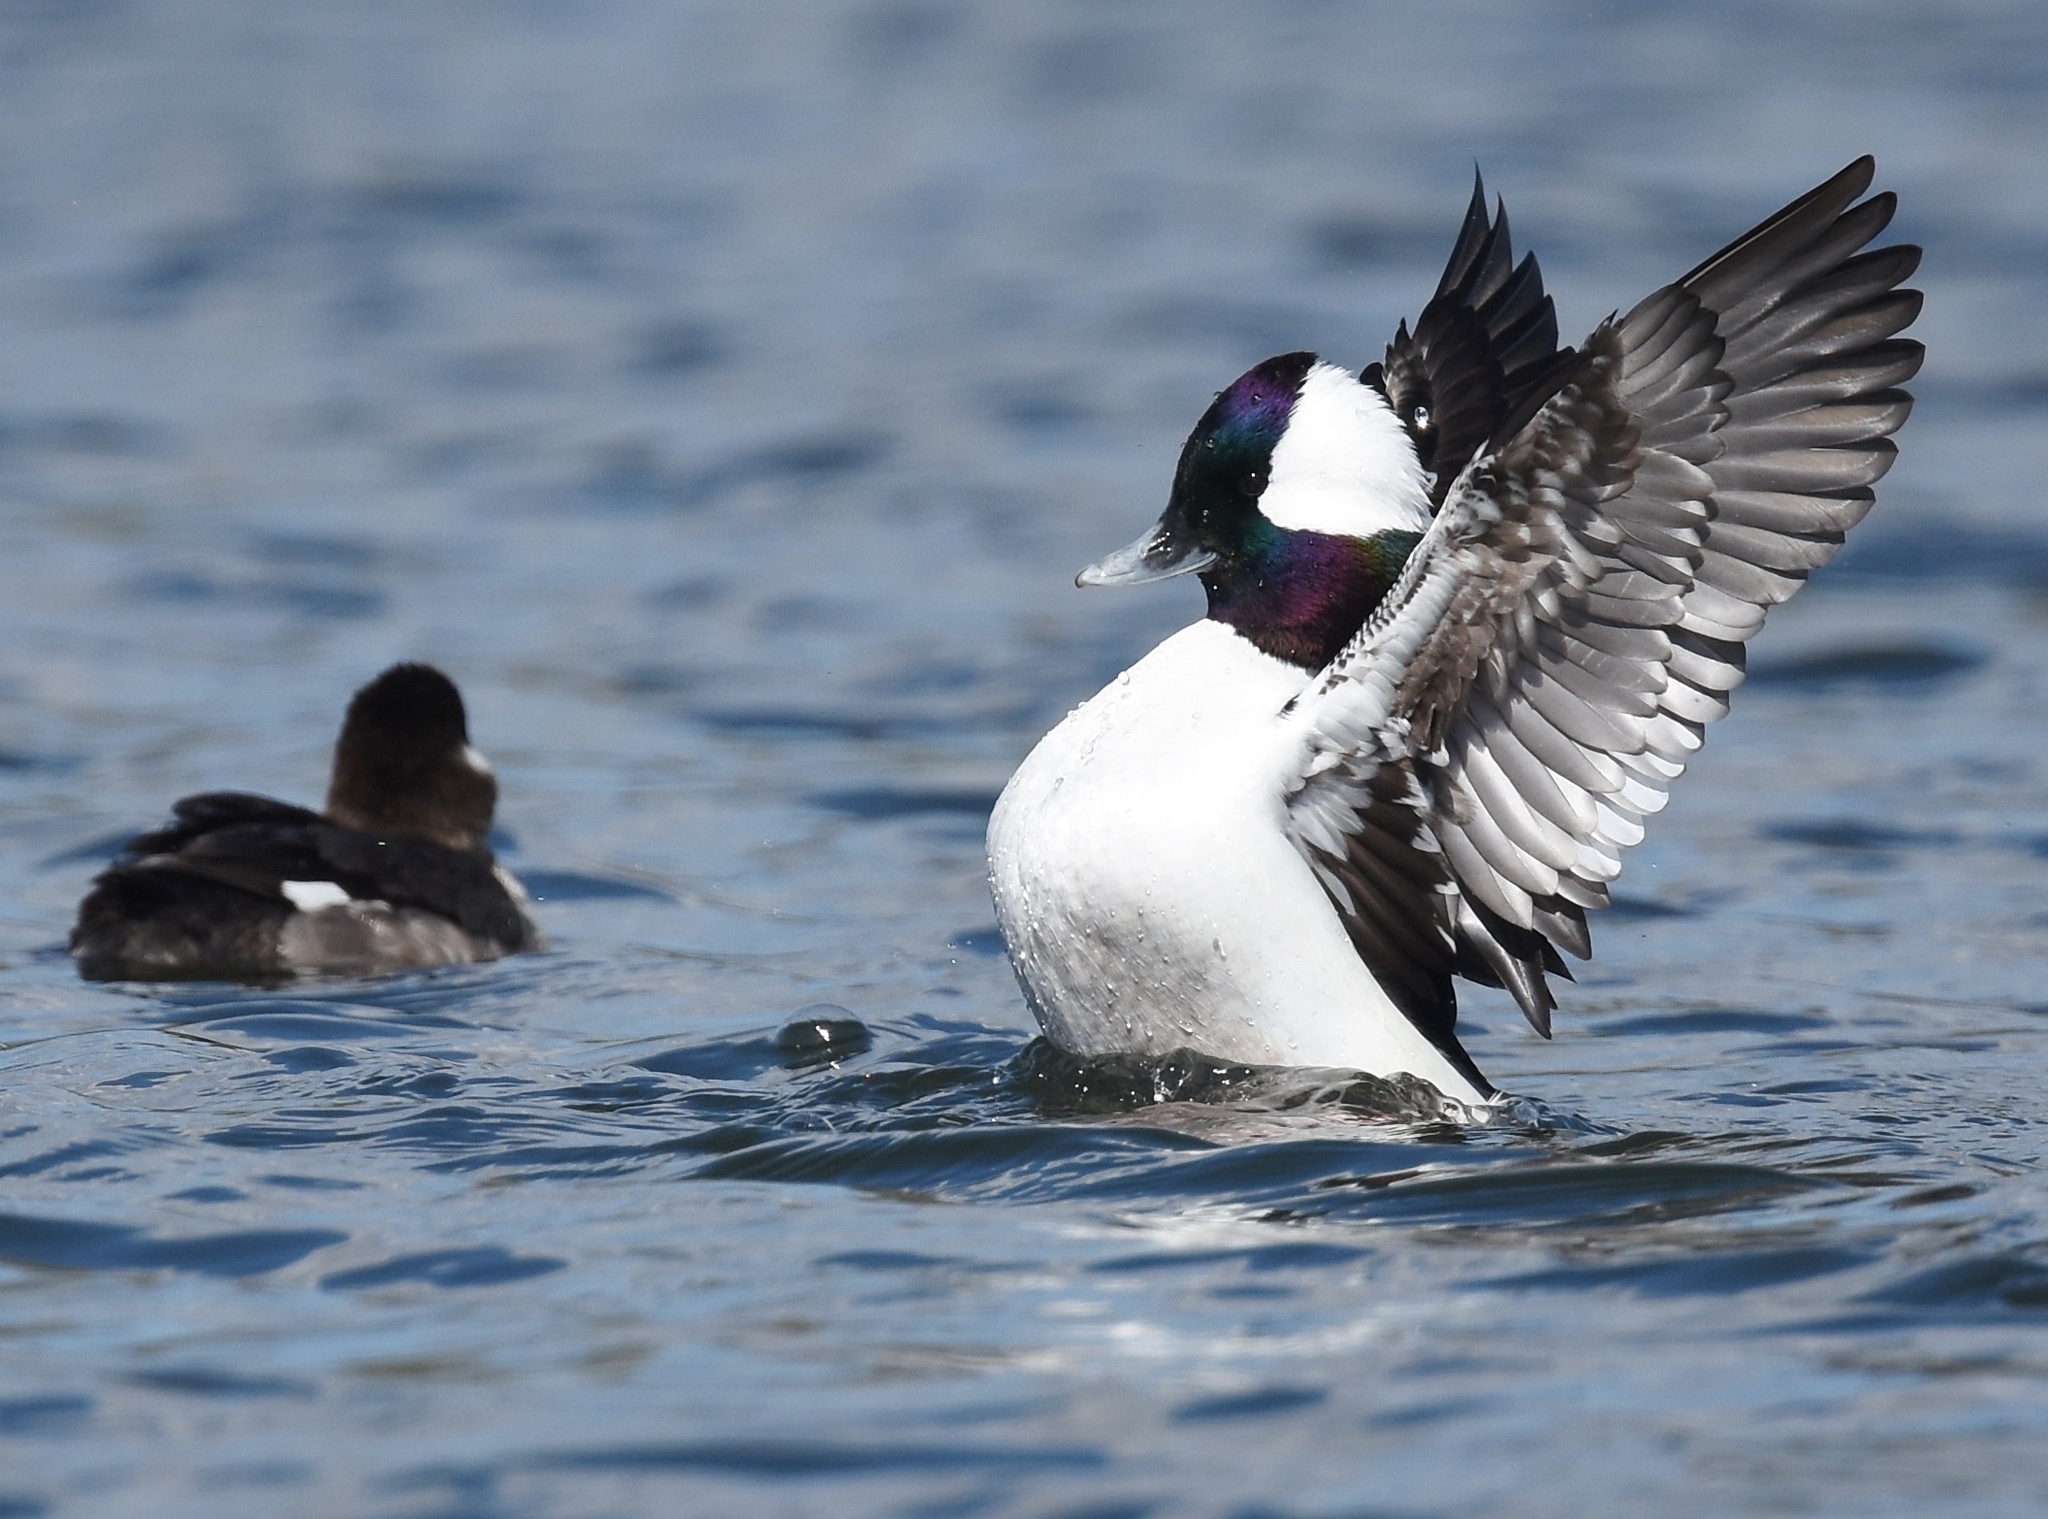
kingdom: Animalia
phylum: Chordata
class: Aves
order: Anseriformes
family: Anatidae
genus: Bucephala
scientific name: Bucephala albeola
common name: Bufflehead
